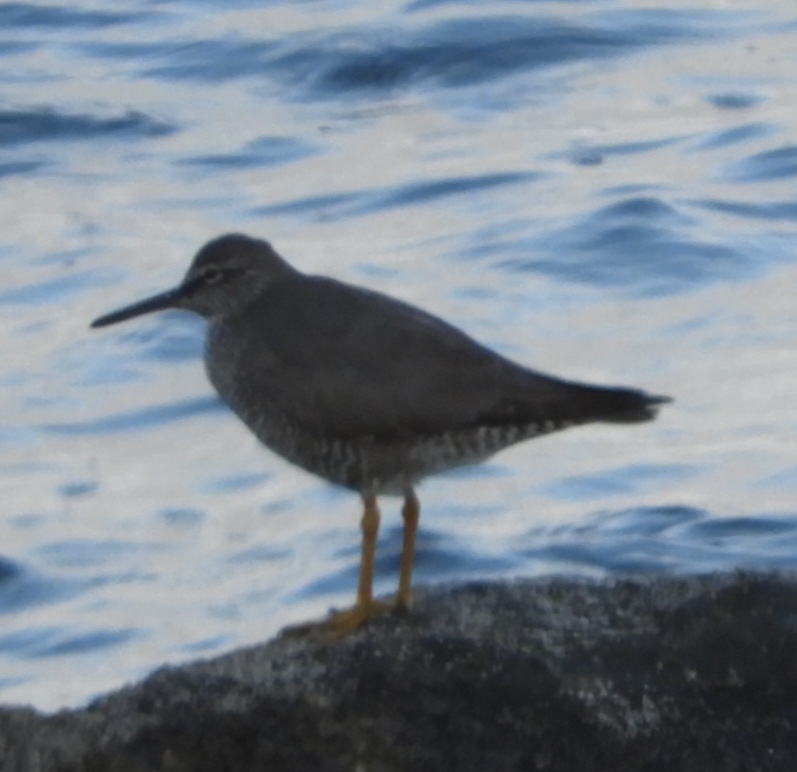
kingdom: Animalia
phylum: Chordata
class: Aves
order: Charadriiformes
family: Scolopacidae
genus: Tringa
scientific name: Tringa incana
